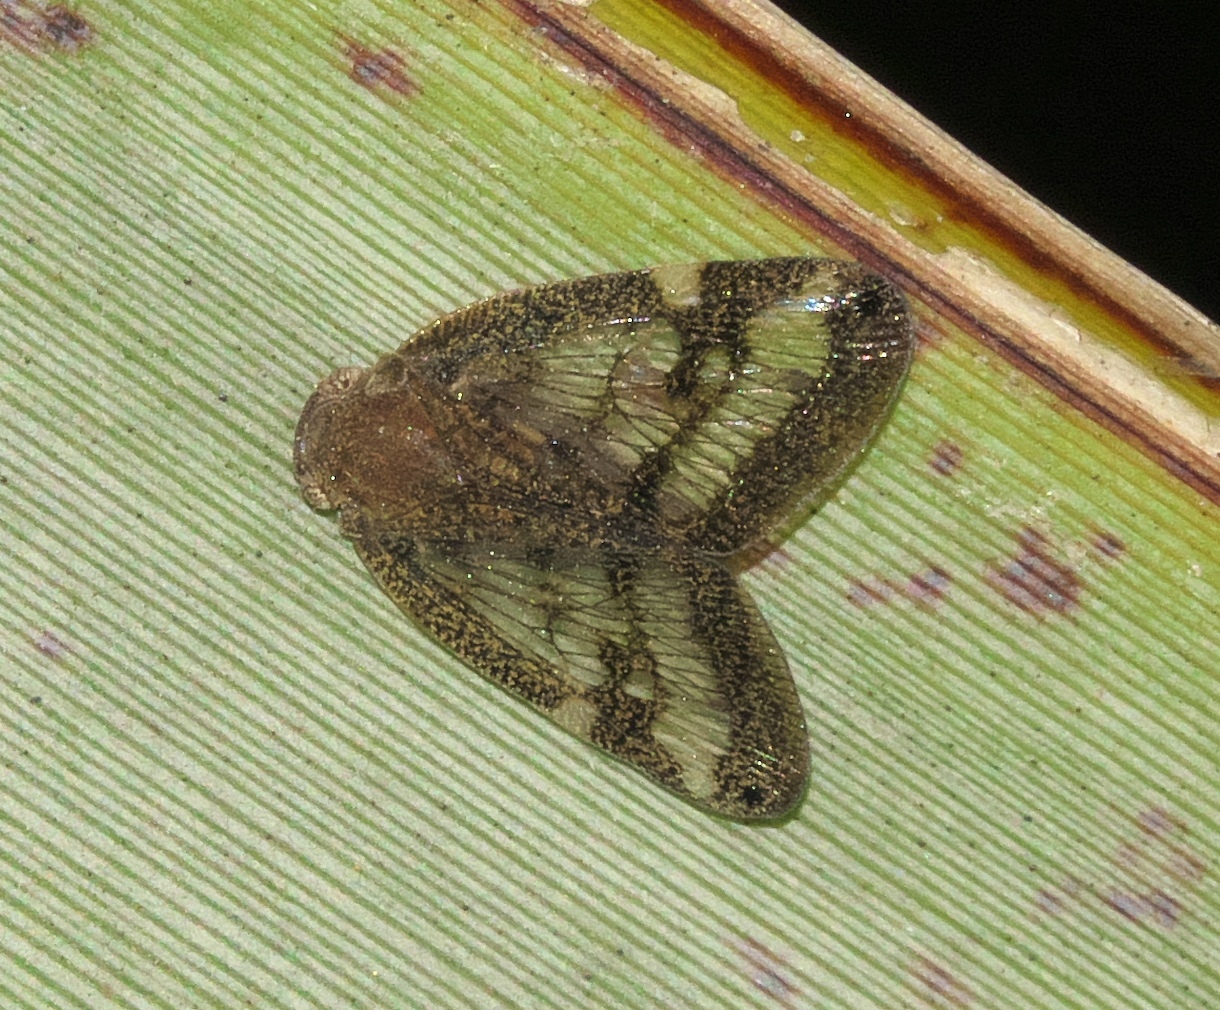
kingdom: Animalia
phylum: Arthropoda
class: Insecta
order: Hemiptera
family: Ricaniidae
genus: Scolypopa
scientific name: Scolypopa australis
